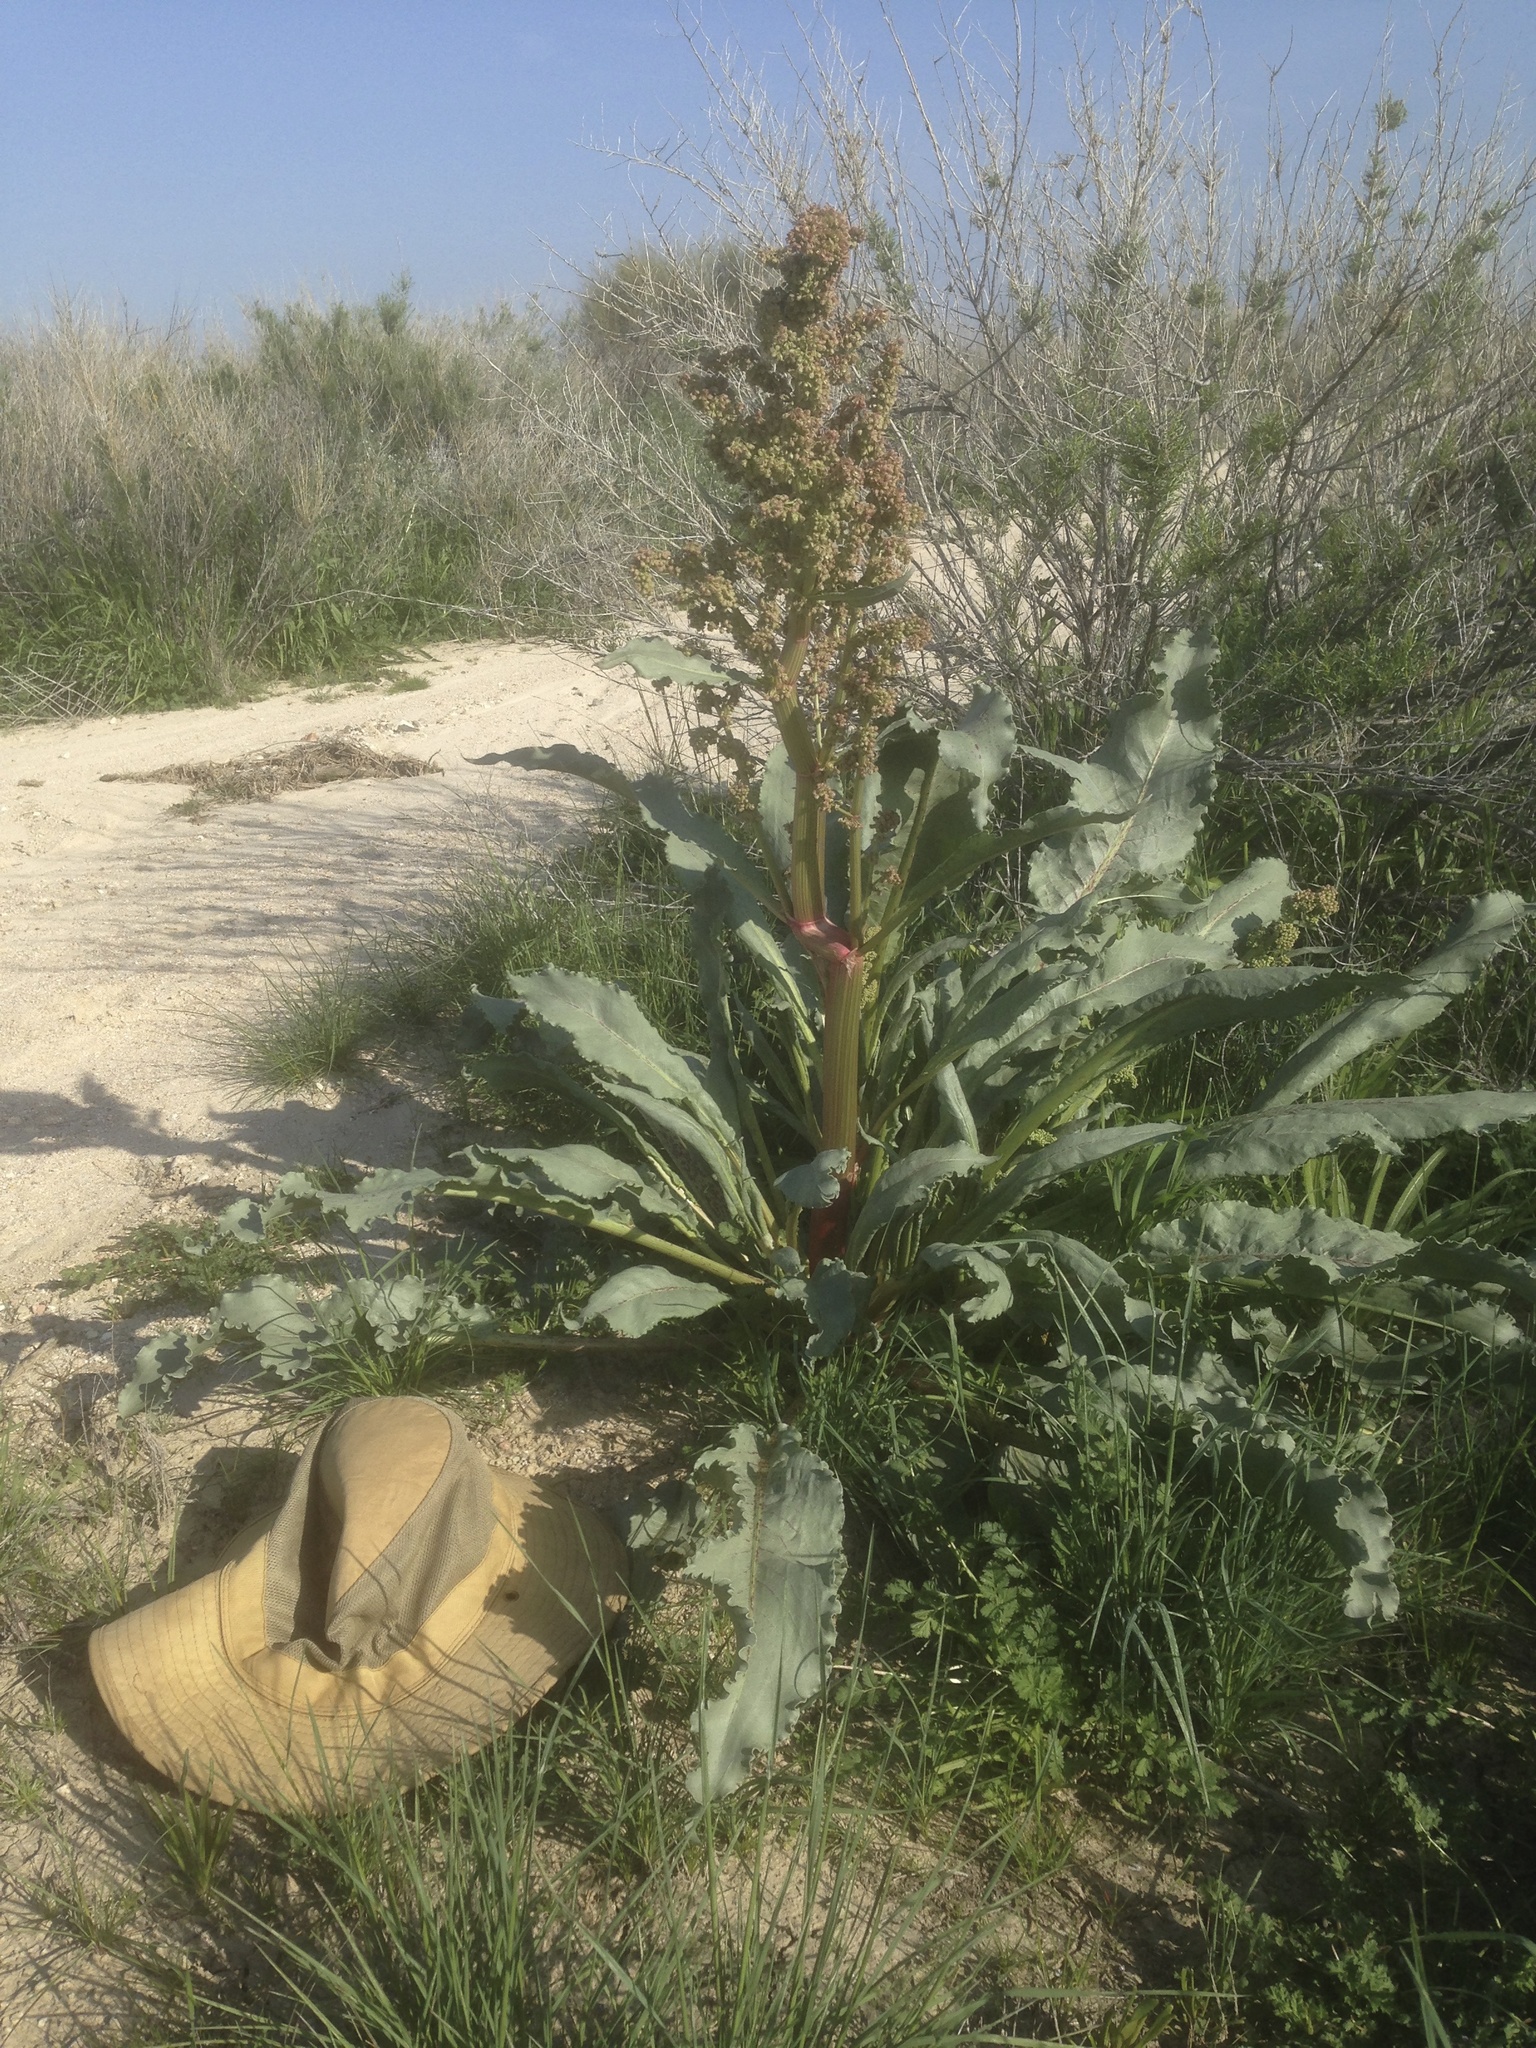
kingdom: Plantae
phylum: Tracheophyta
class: Magnoliopsida
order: Caryophyllales
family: Polygonaceae
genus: Rumex
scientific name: Rumex hymenosepalus
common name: Ganagra
